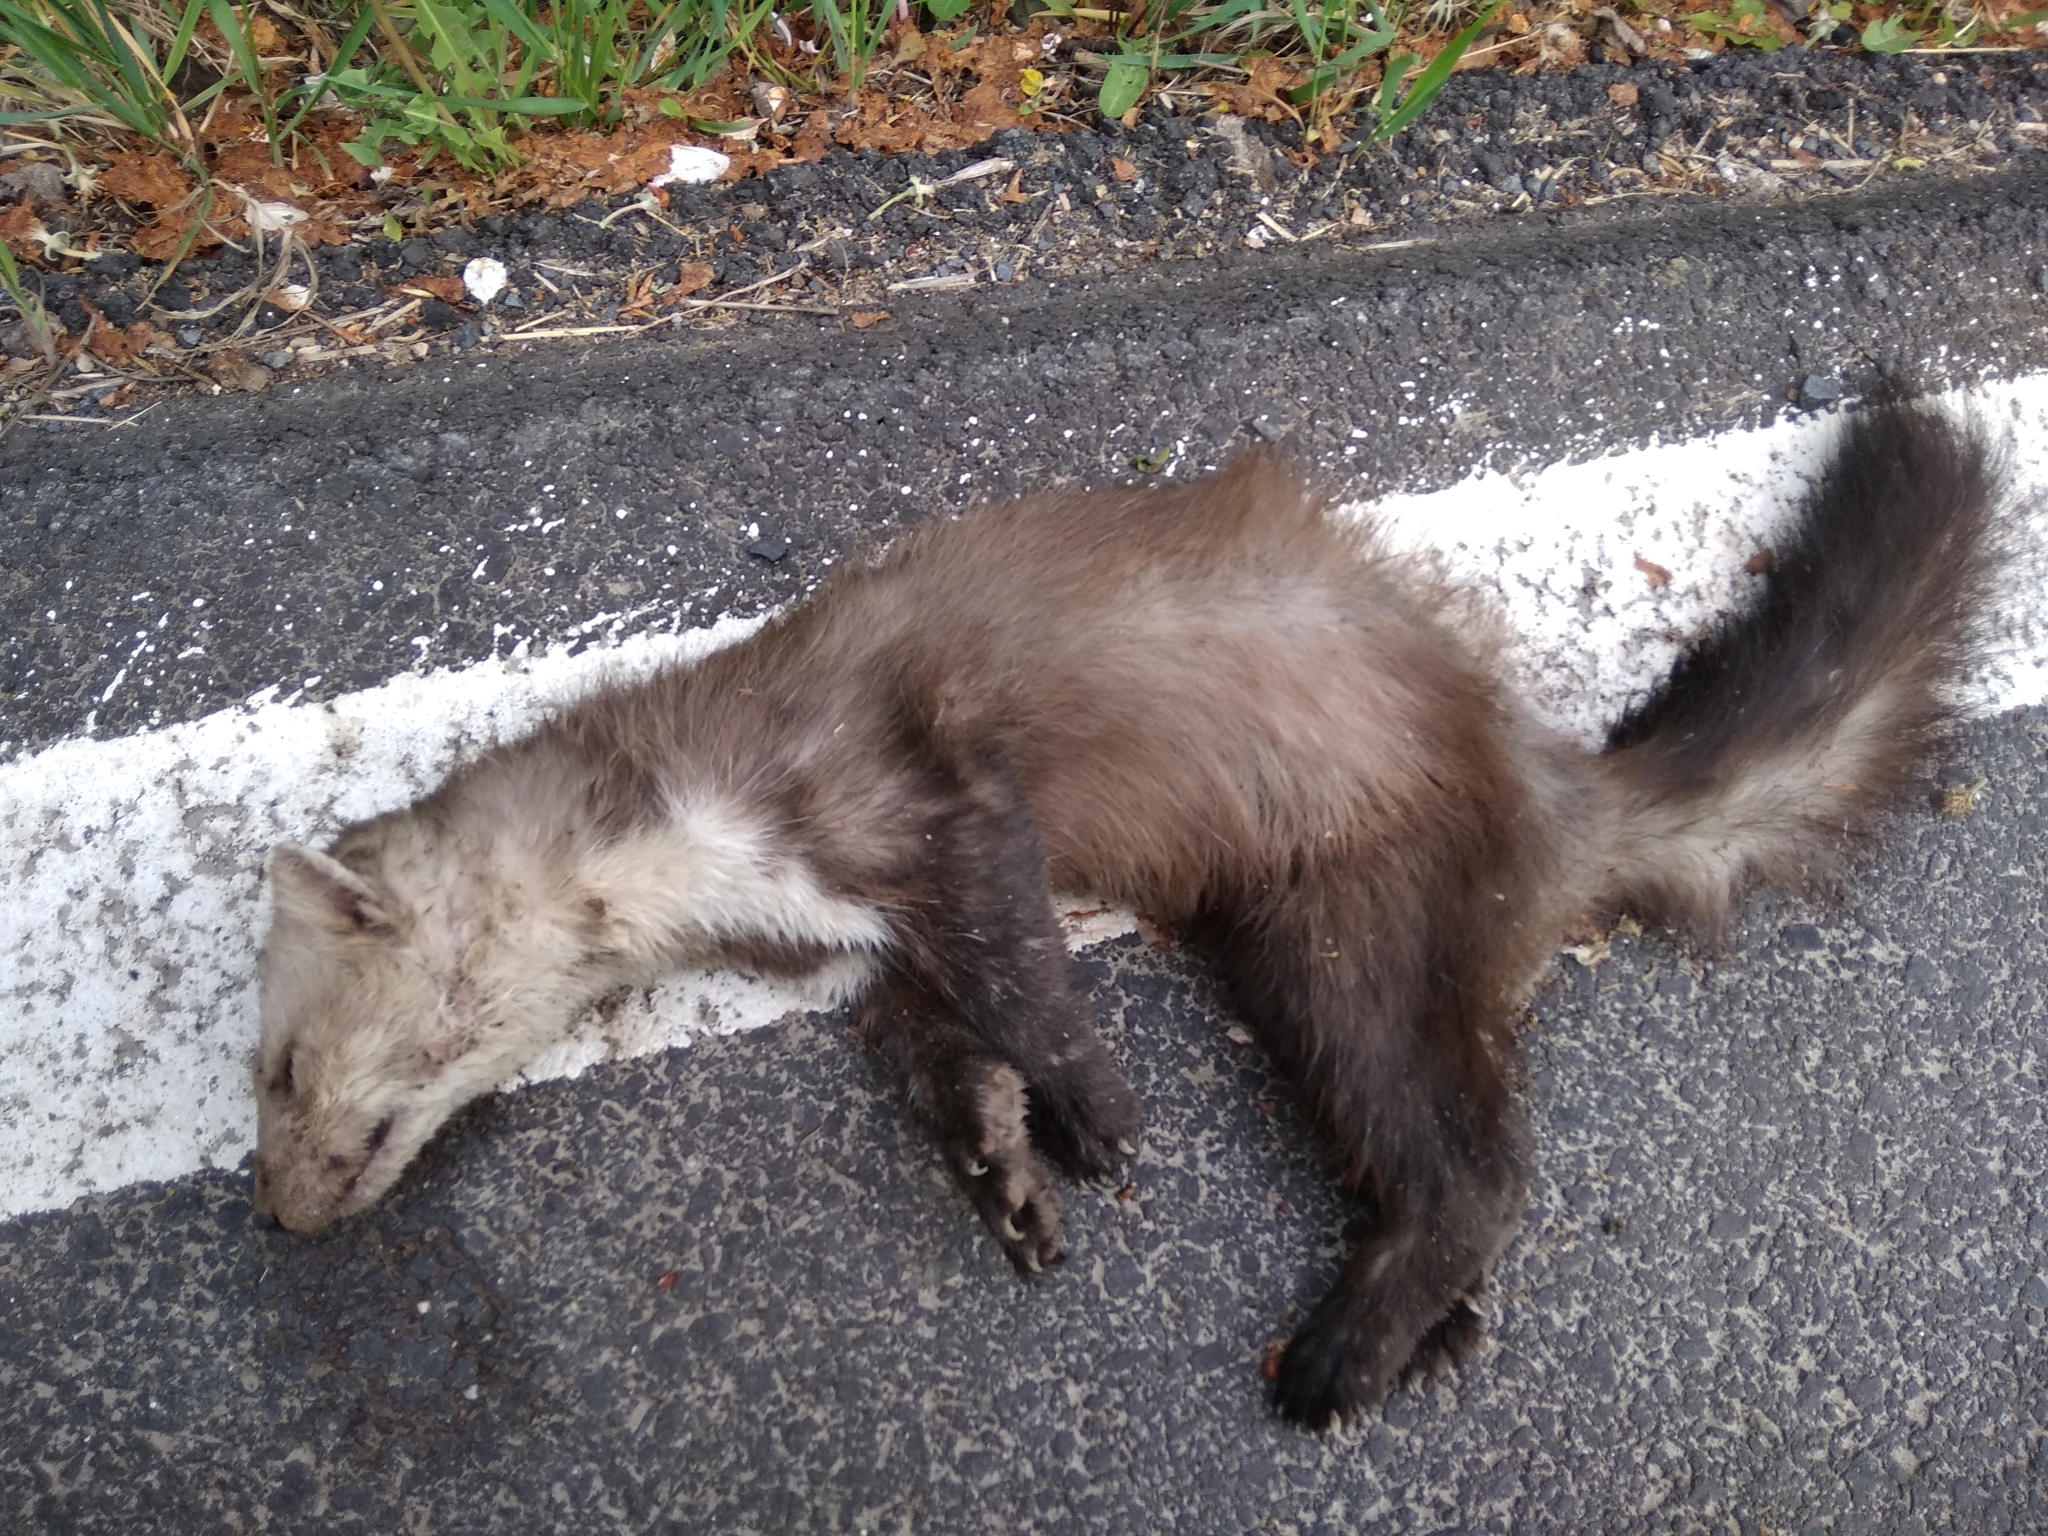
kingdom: Animalia
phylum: Chordata
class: Mammalia
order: Carnivora
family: Mustelidae
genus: Martes
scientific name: Martes foina
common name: Beech marten
